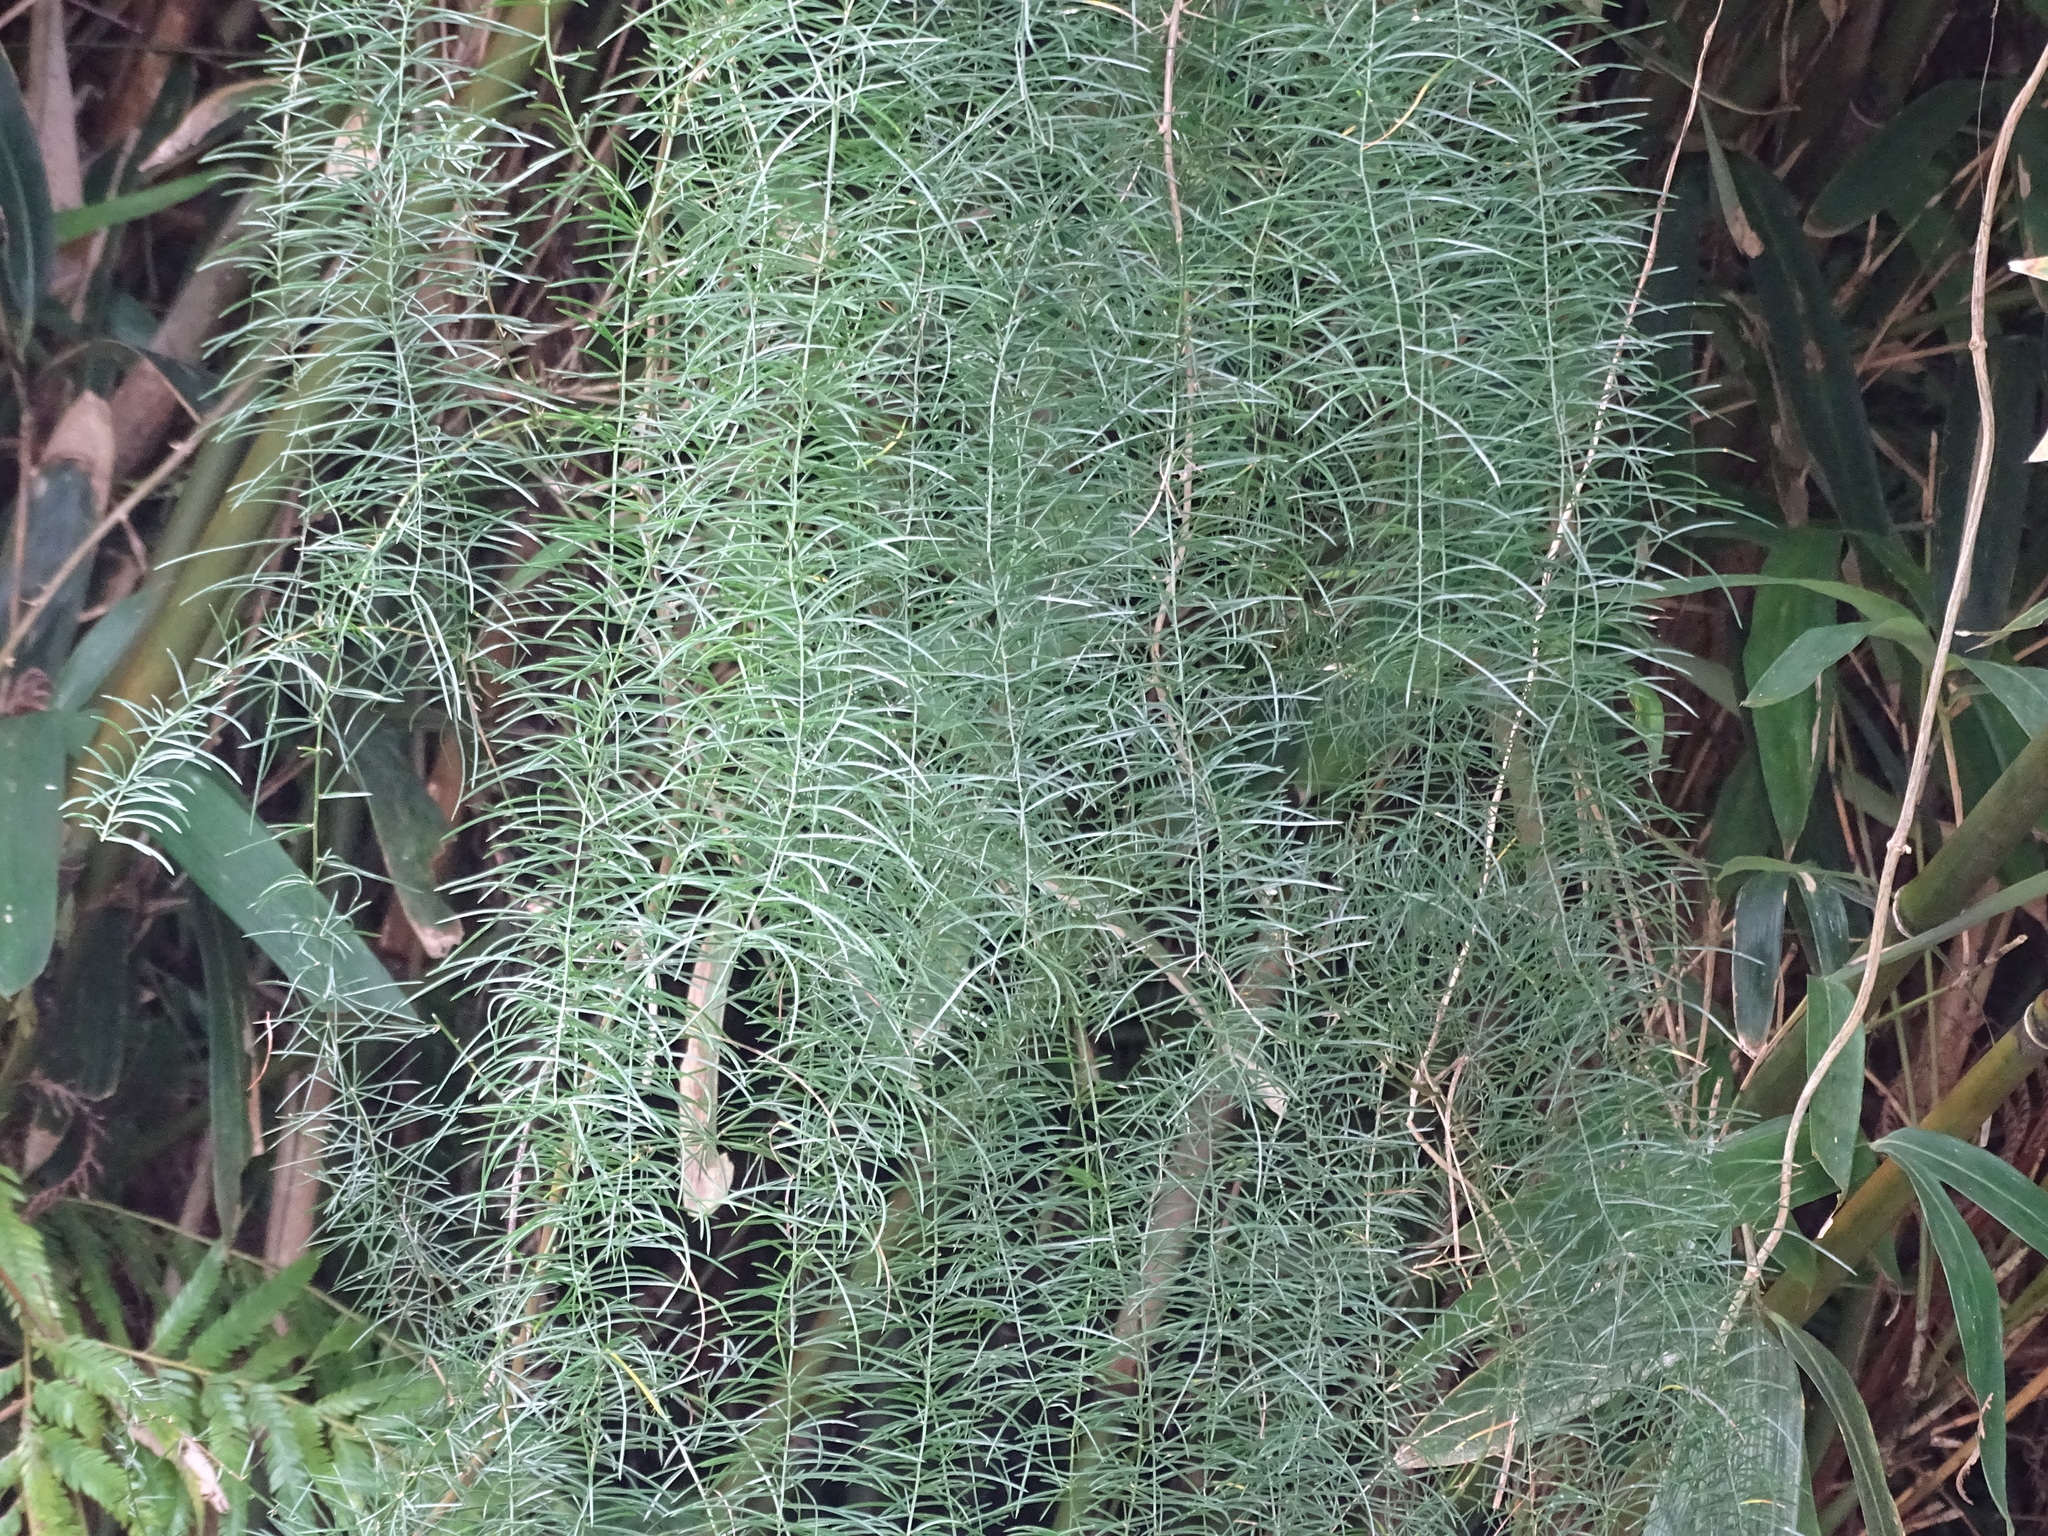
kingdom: Plantae
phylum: Tracheophyta
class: Liliopsida
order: Asparagales
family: Asparagaceae
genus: Asparagus
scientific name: Asparagus cochinchinensis
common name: Chinese asparagus
